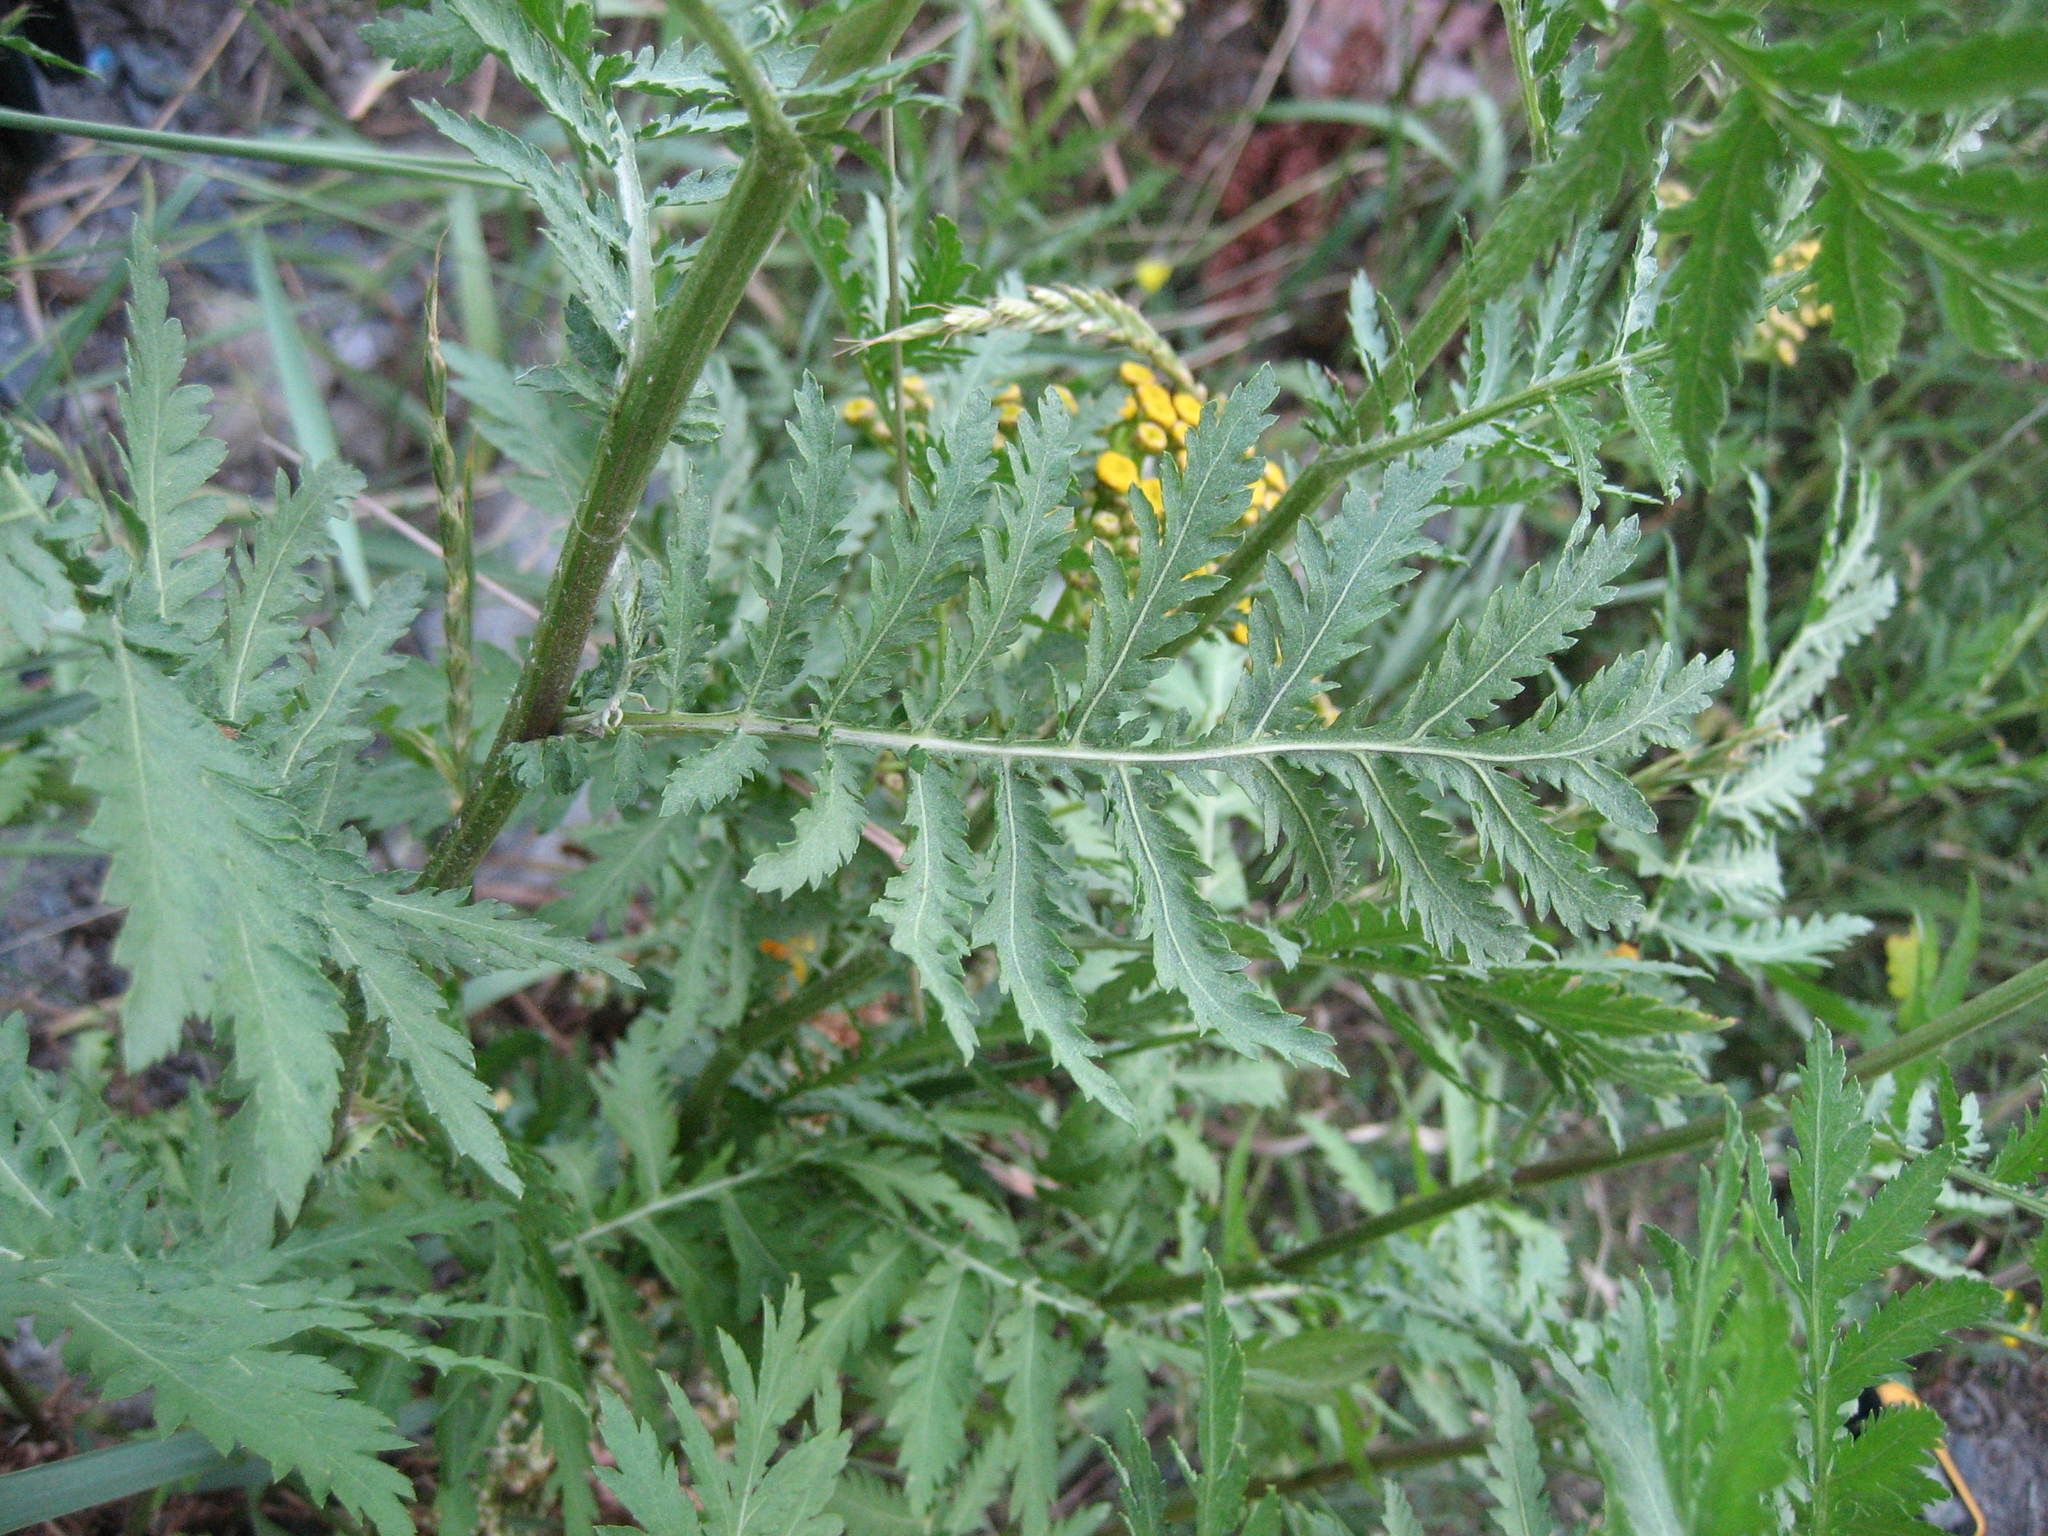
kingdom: Plantae
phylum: Tracheophyta
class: Magnoliopsida
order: Asterales
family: Asteraceae
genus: Tanacetum
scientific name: Tanacetum vulgare
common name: Common tansy
